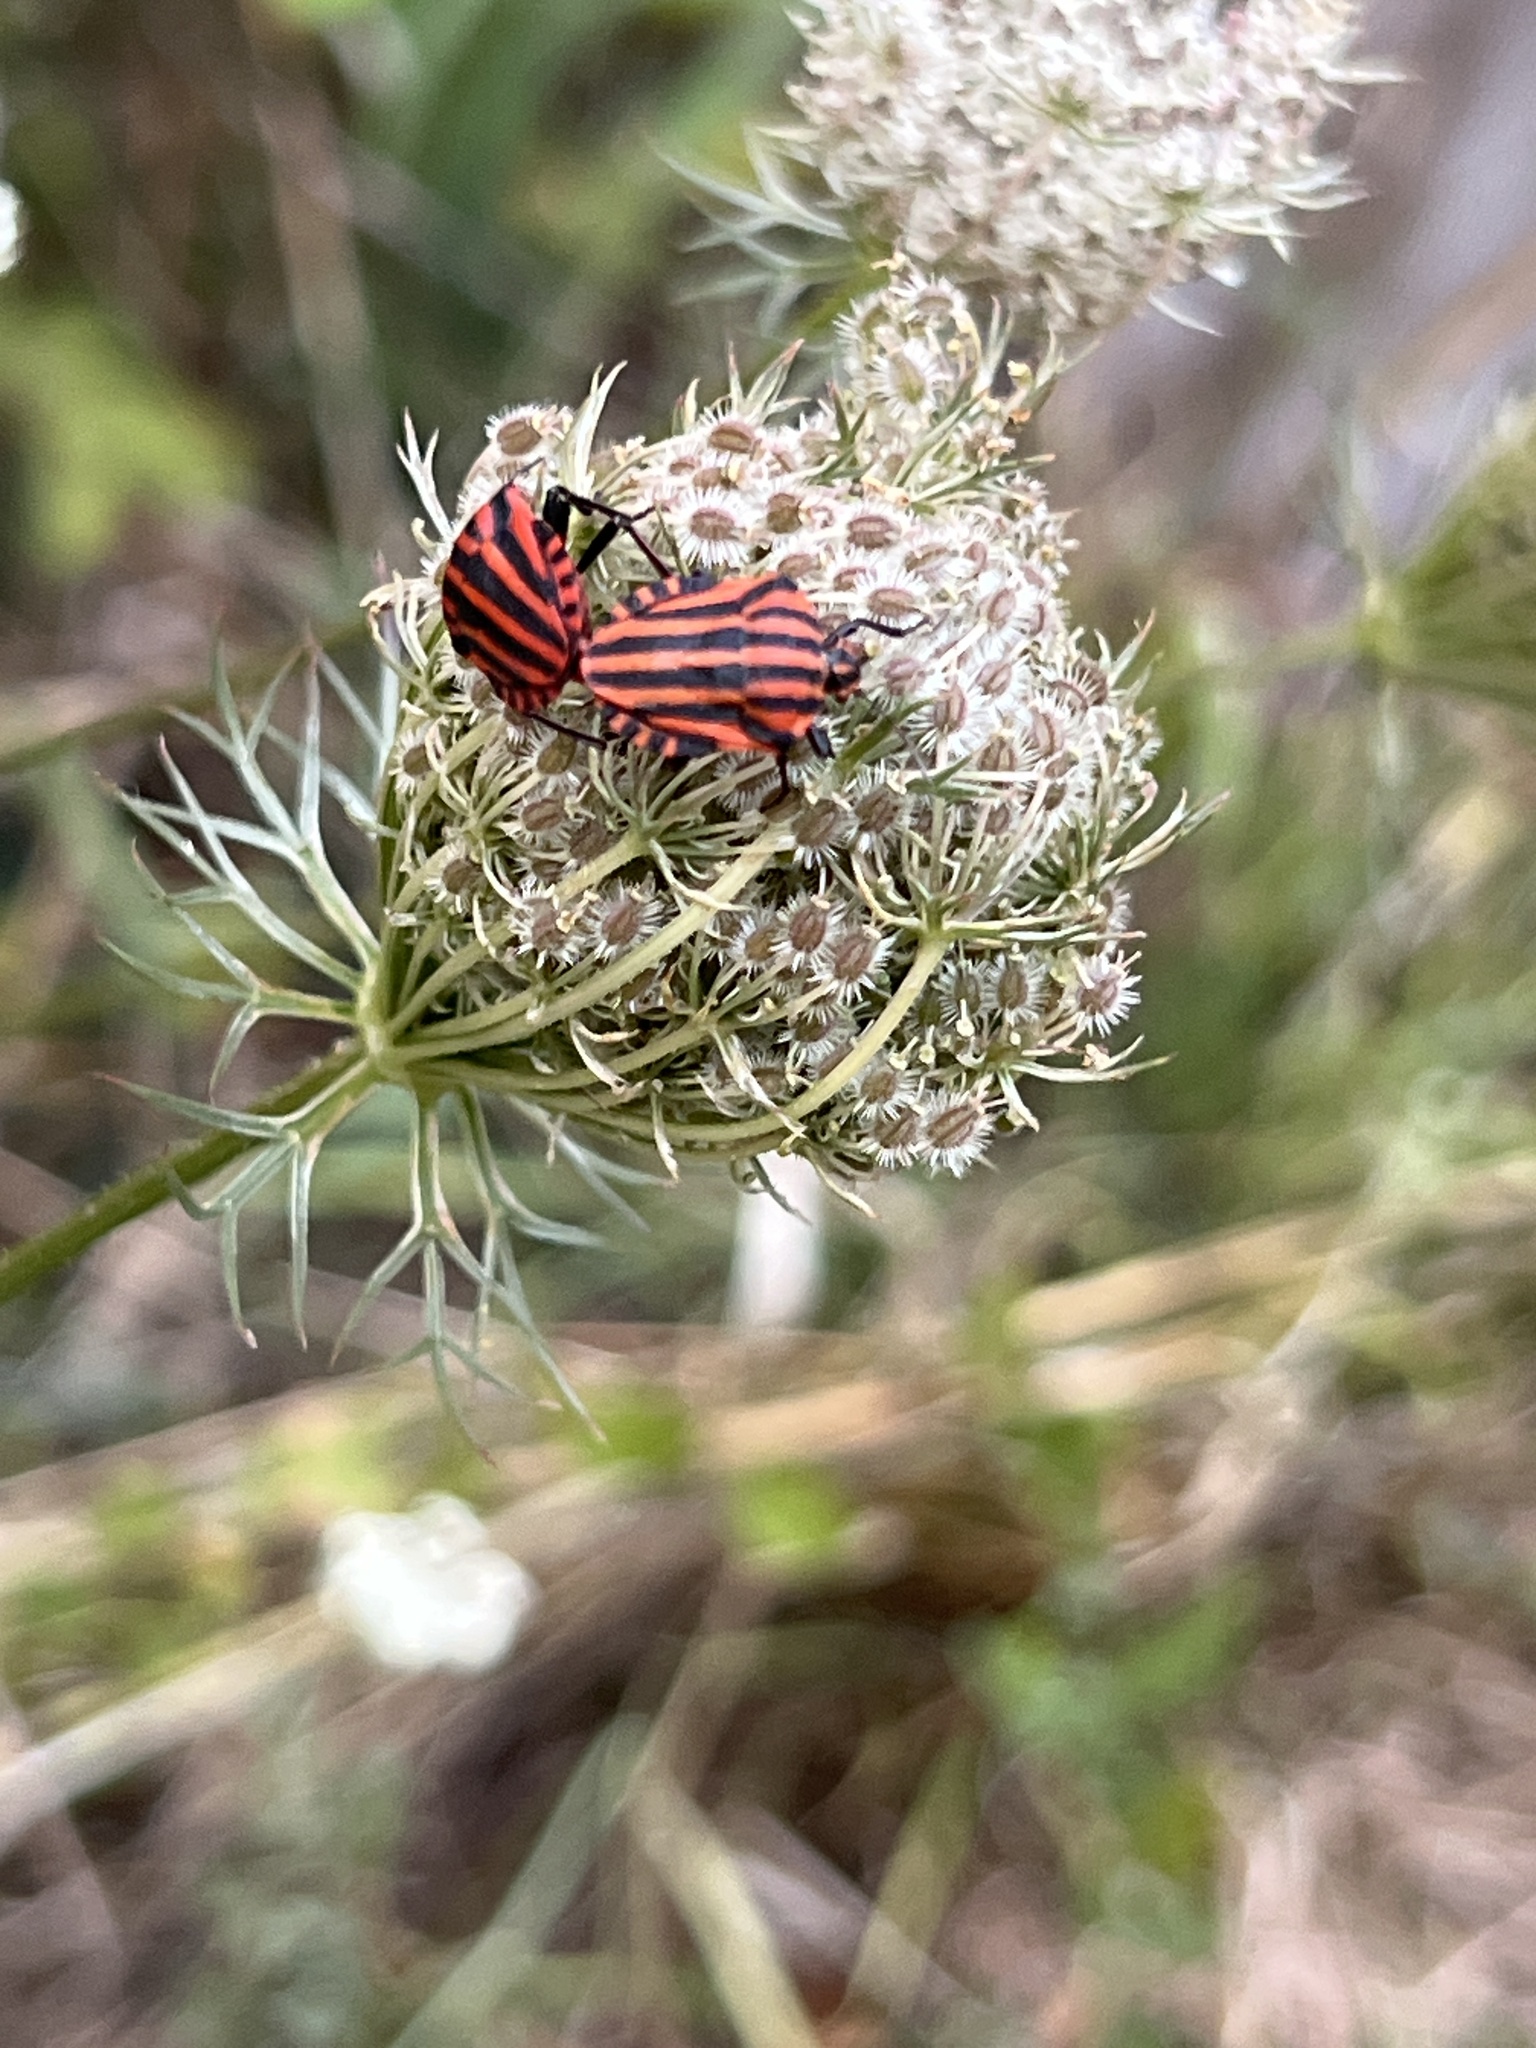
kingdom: Animalia
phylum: Arthropoda
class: Insecta
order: Hemiptera
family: Pentatomidae
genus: Graphosoma
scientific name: Graphosoma italicum
